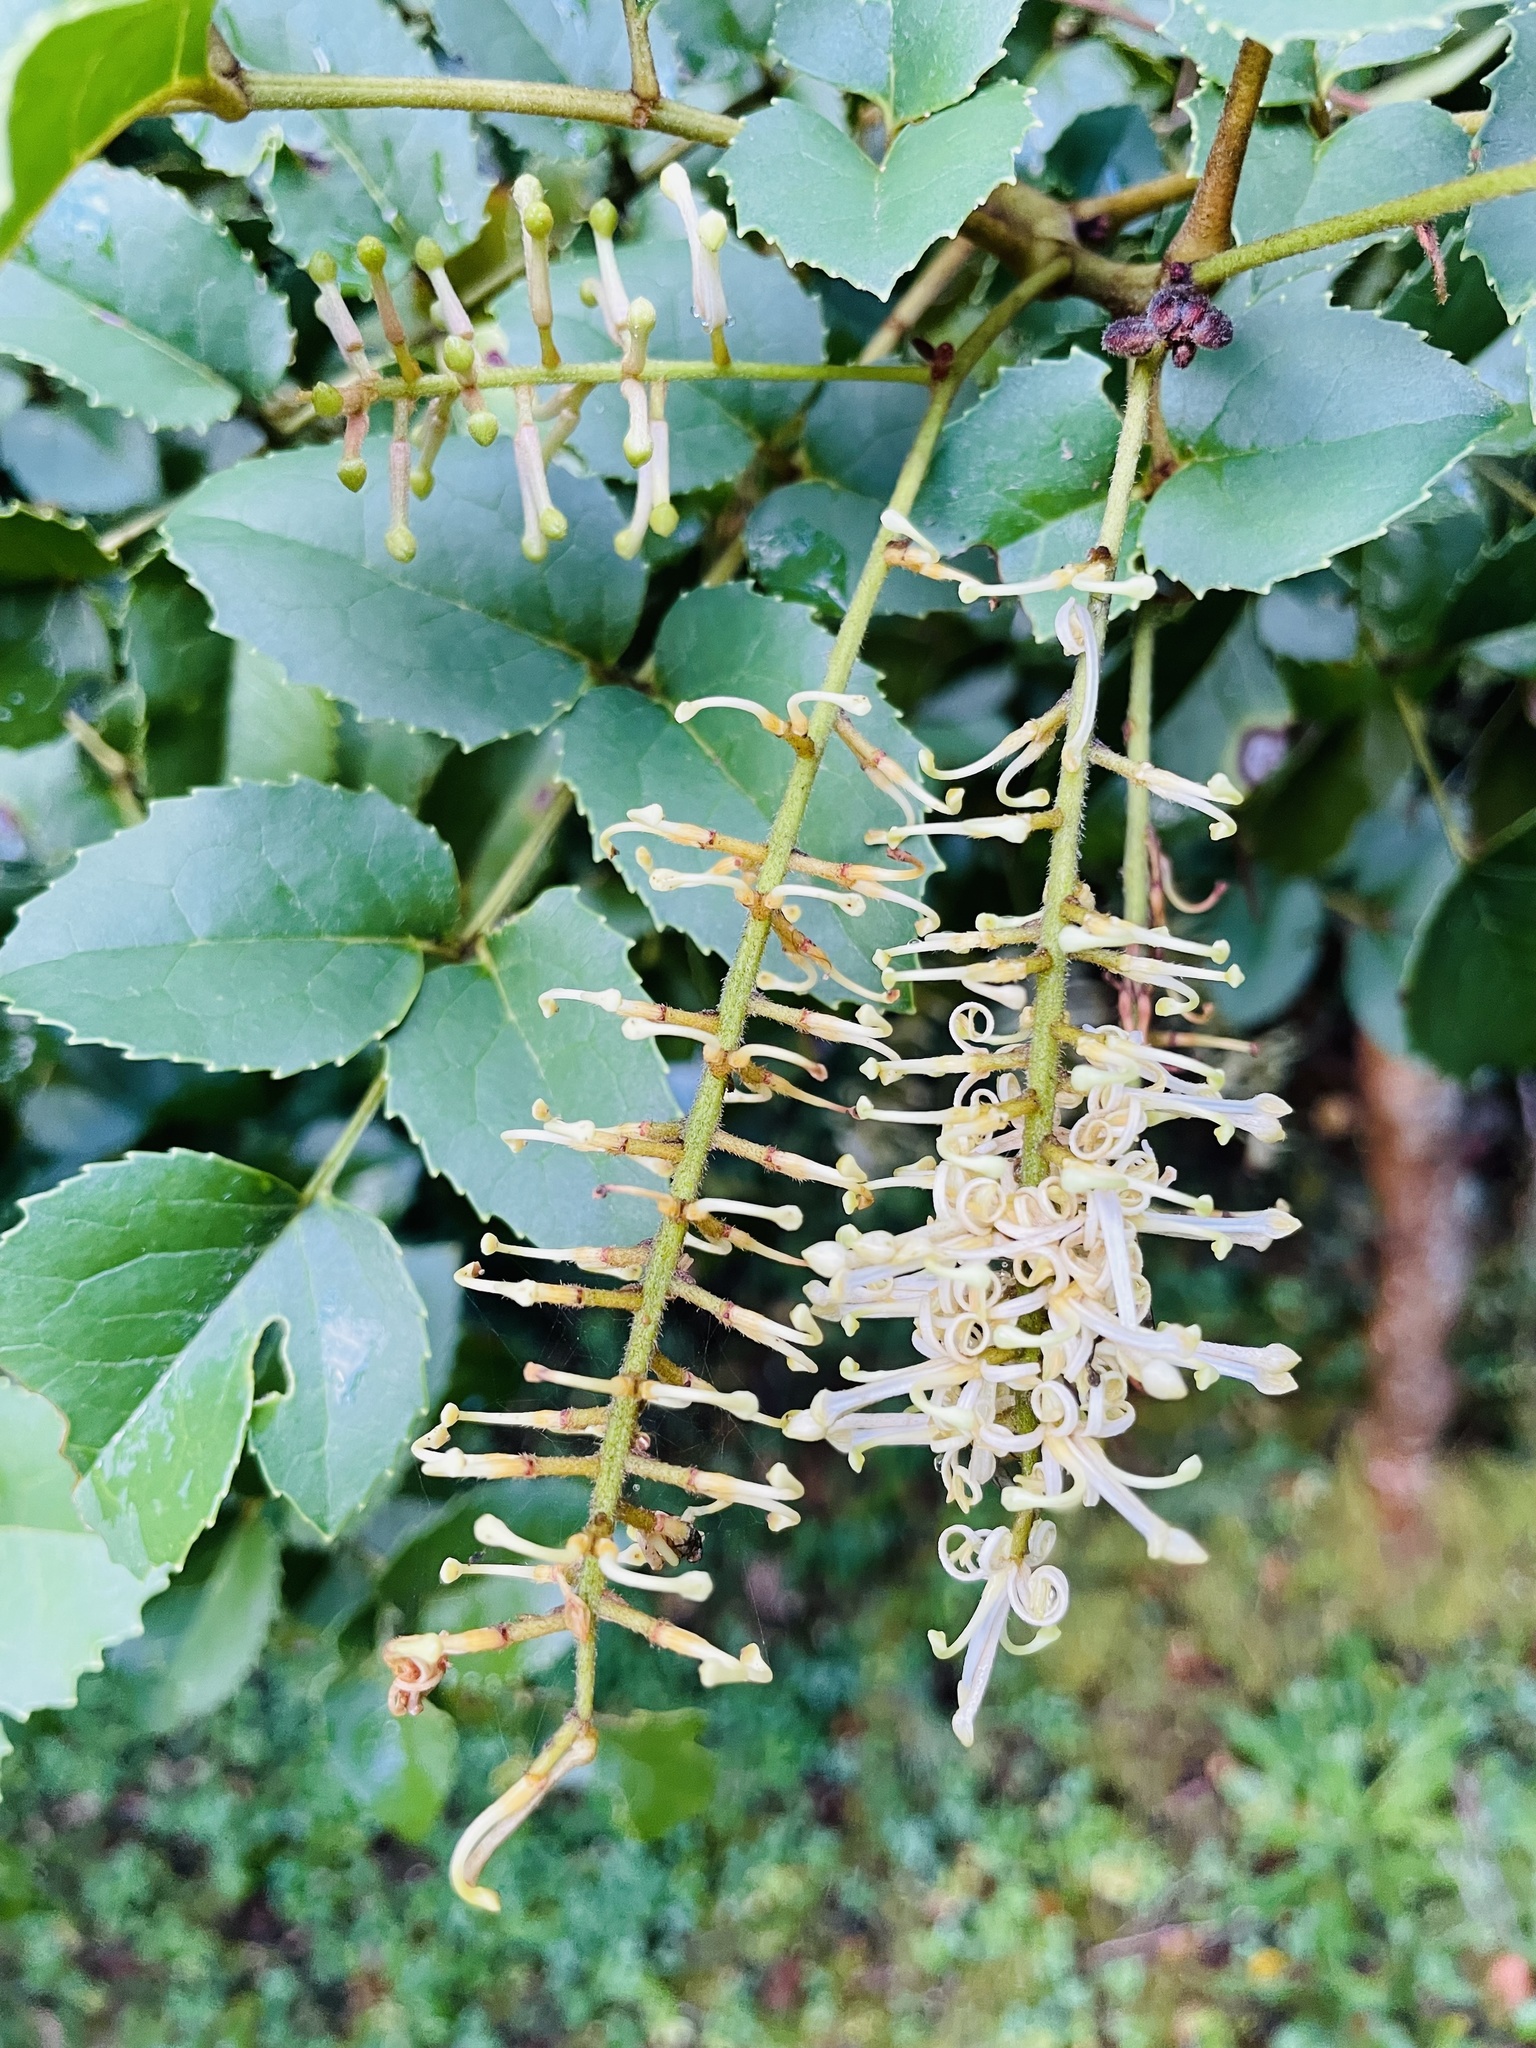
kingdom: Plantae
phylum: Tracheophyta
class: Magnoliopsida
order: Proteales
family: Proteaceae
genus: Gevuina
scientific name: Gevuina avellana
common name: Chilean hazel
